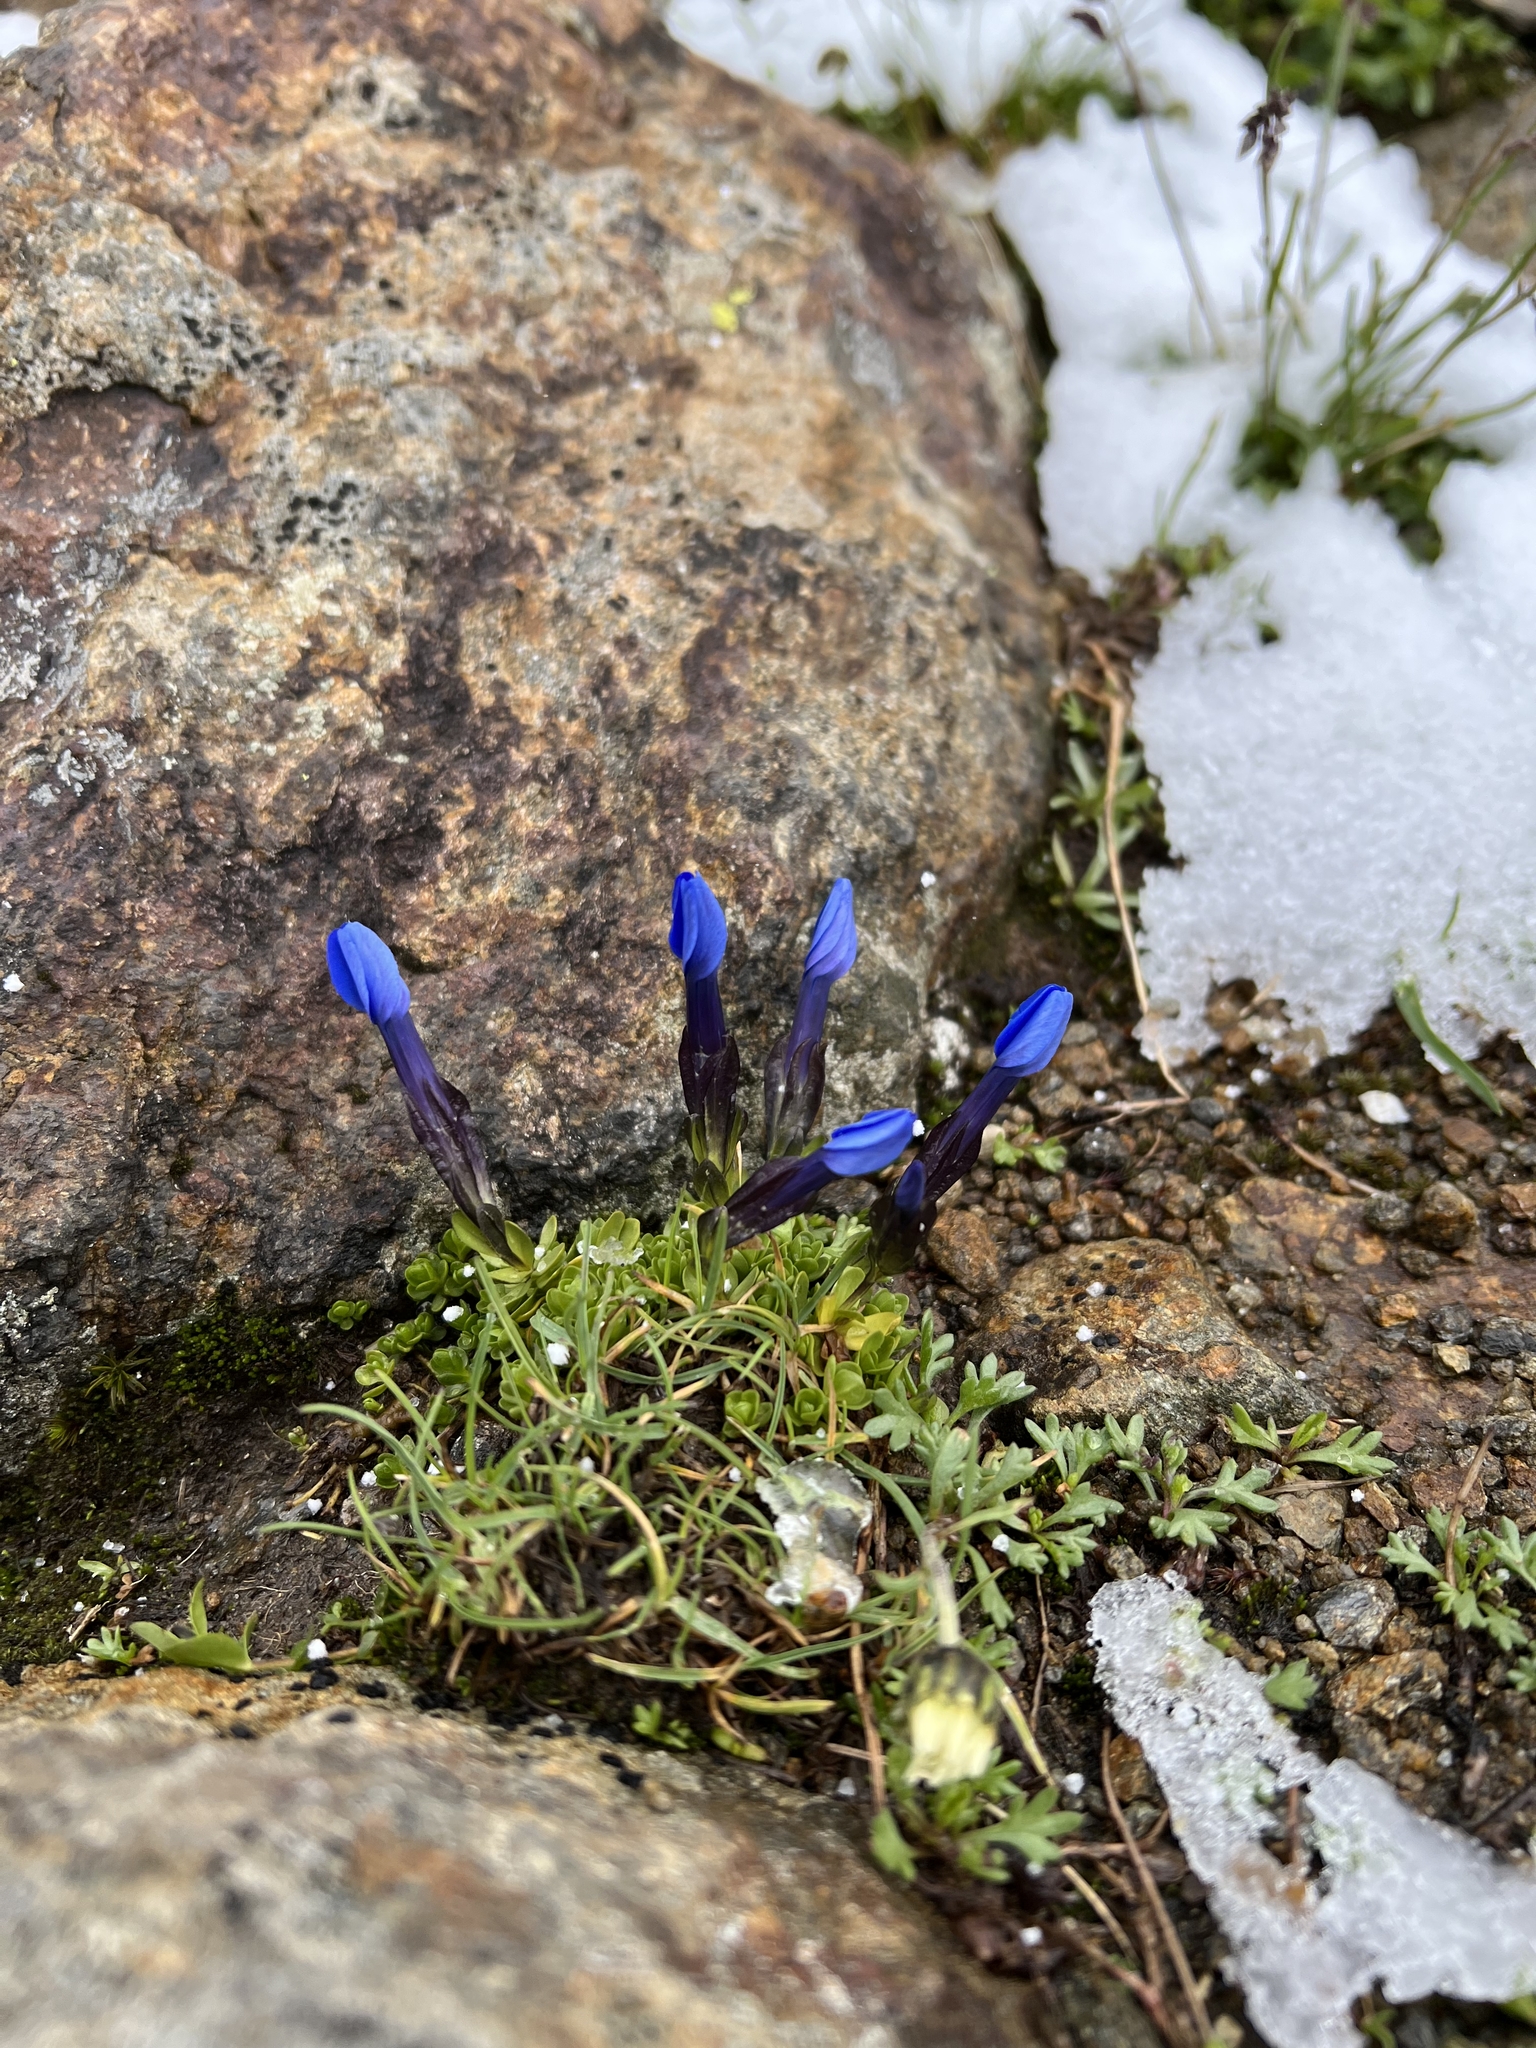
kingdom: Plantae
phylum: Tracheophyta
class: Magnoliopsida
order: Gentianales
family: Gentianaceae
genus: Gentiana
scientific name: Gentiana bavarica
